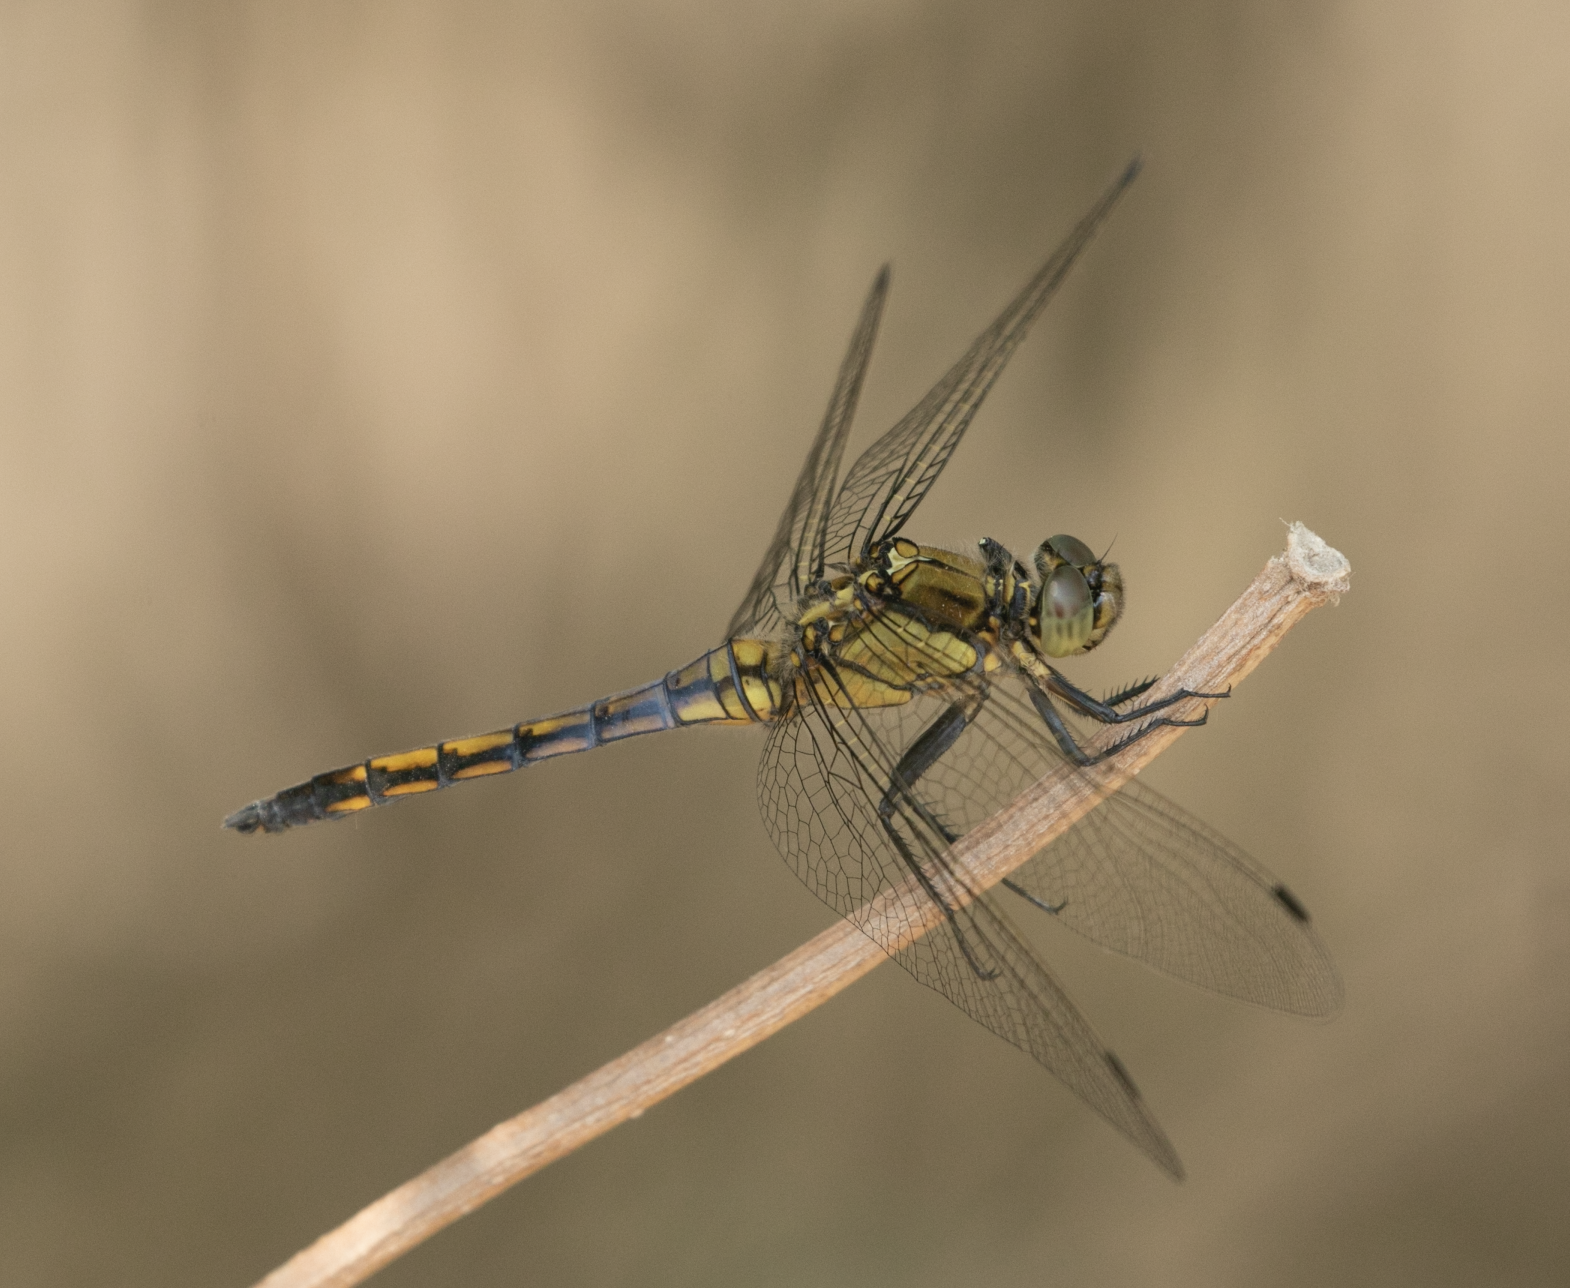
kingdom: Animalia
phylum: Arthropoda
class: Insecta
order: Odonata
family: Libellulidae
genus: Orthetrum
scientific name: Orthetrum cancellatum
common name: Black-tailed skimmer
